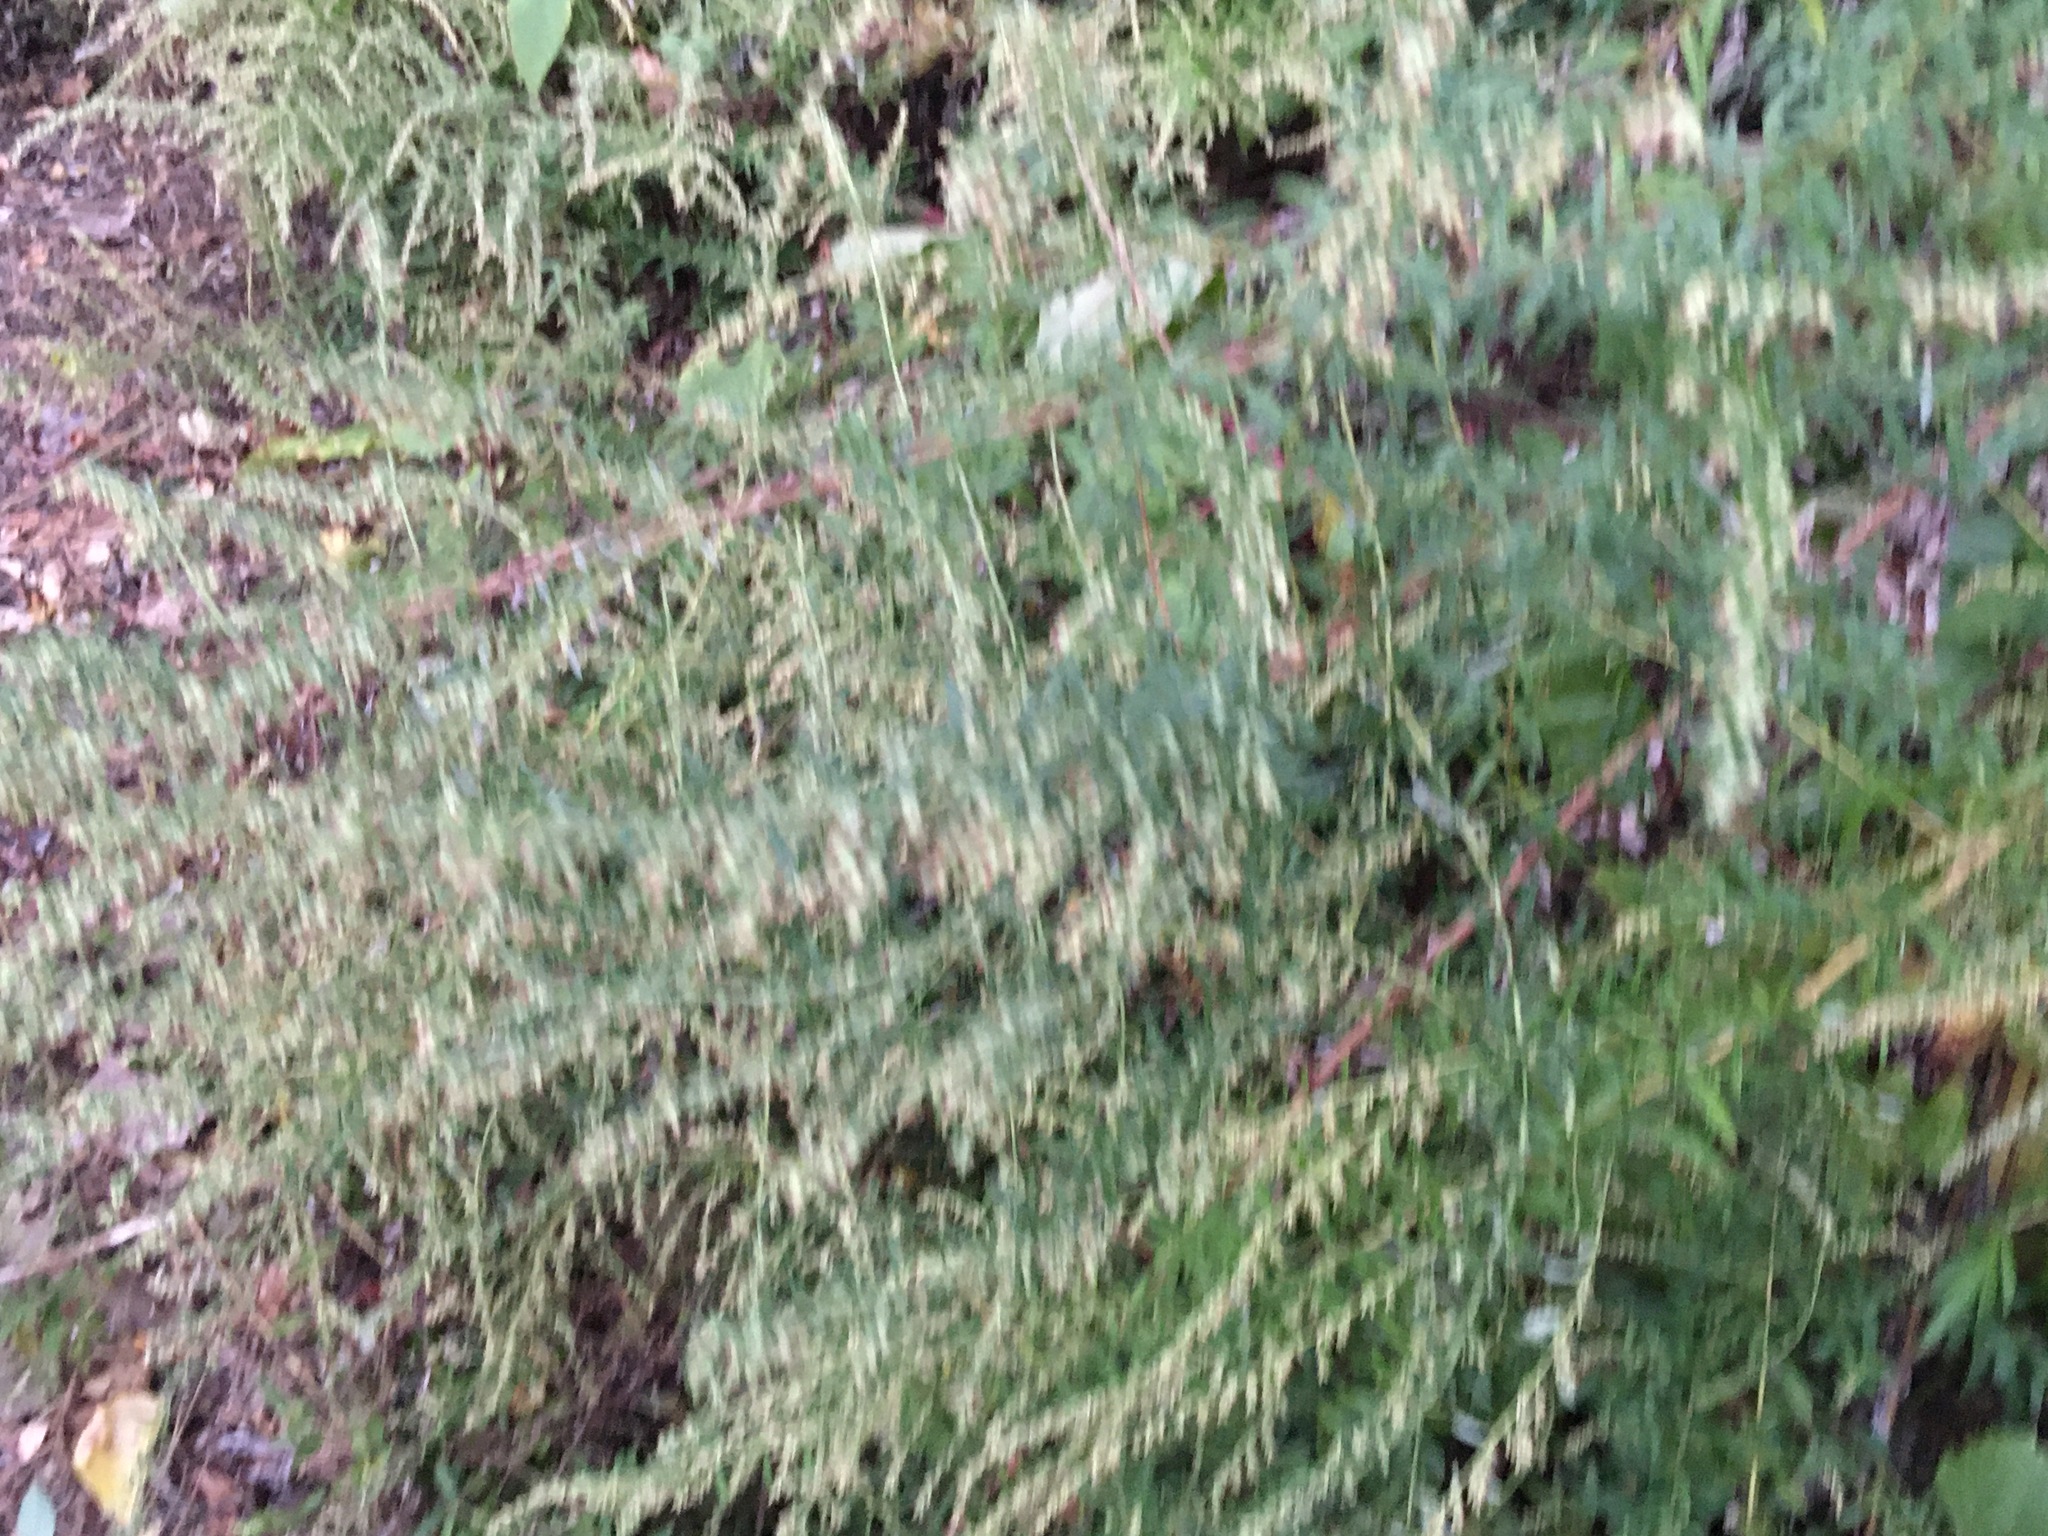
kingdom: Plantae
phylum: Tracheophyta
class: Magnoliopsida
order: Asterales
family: Asteraceae
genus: Artemisia
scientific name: Artemisia vulgaris
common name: Mugwort
